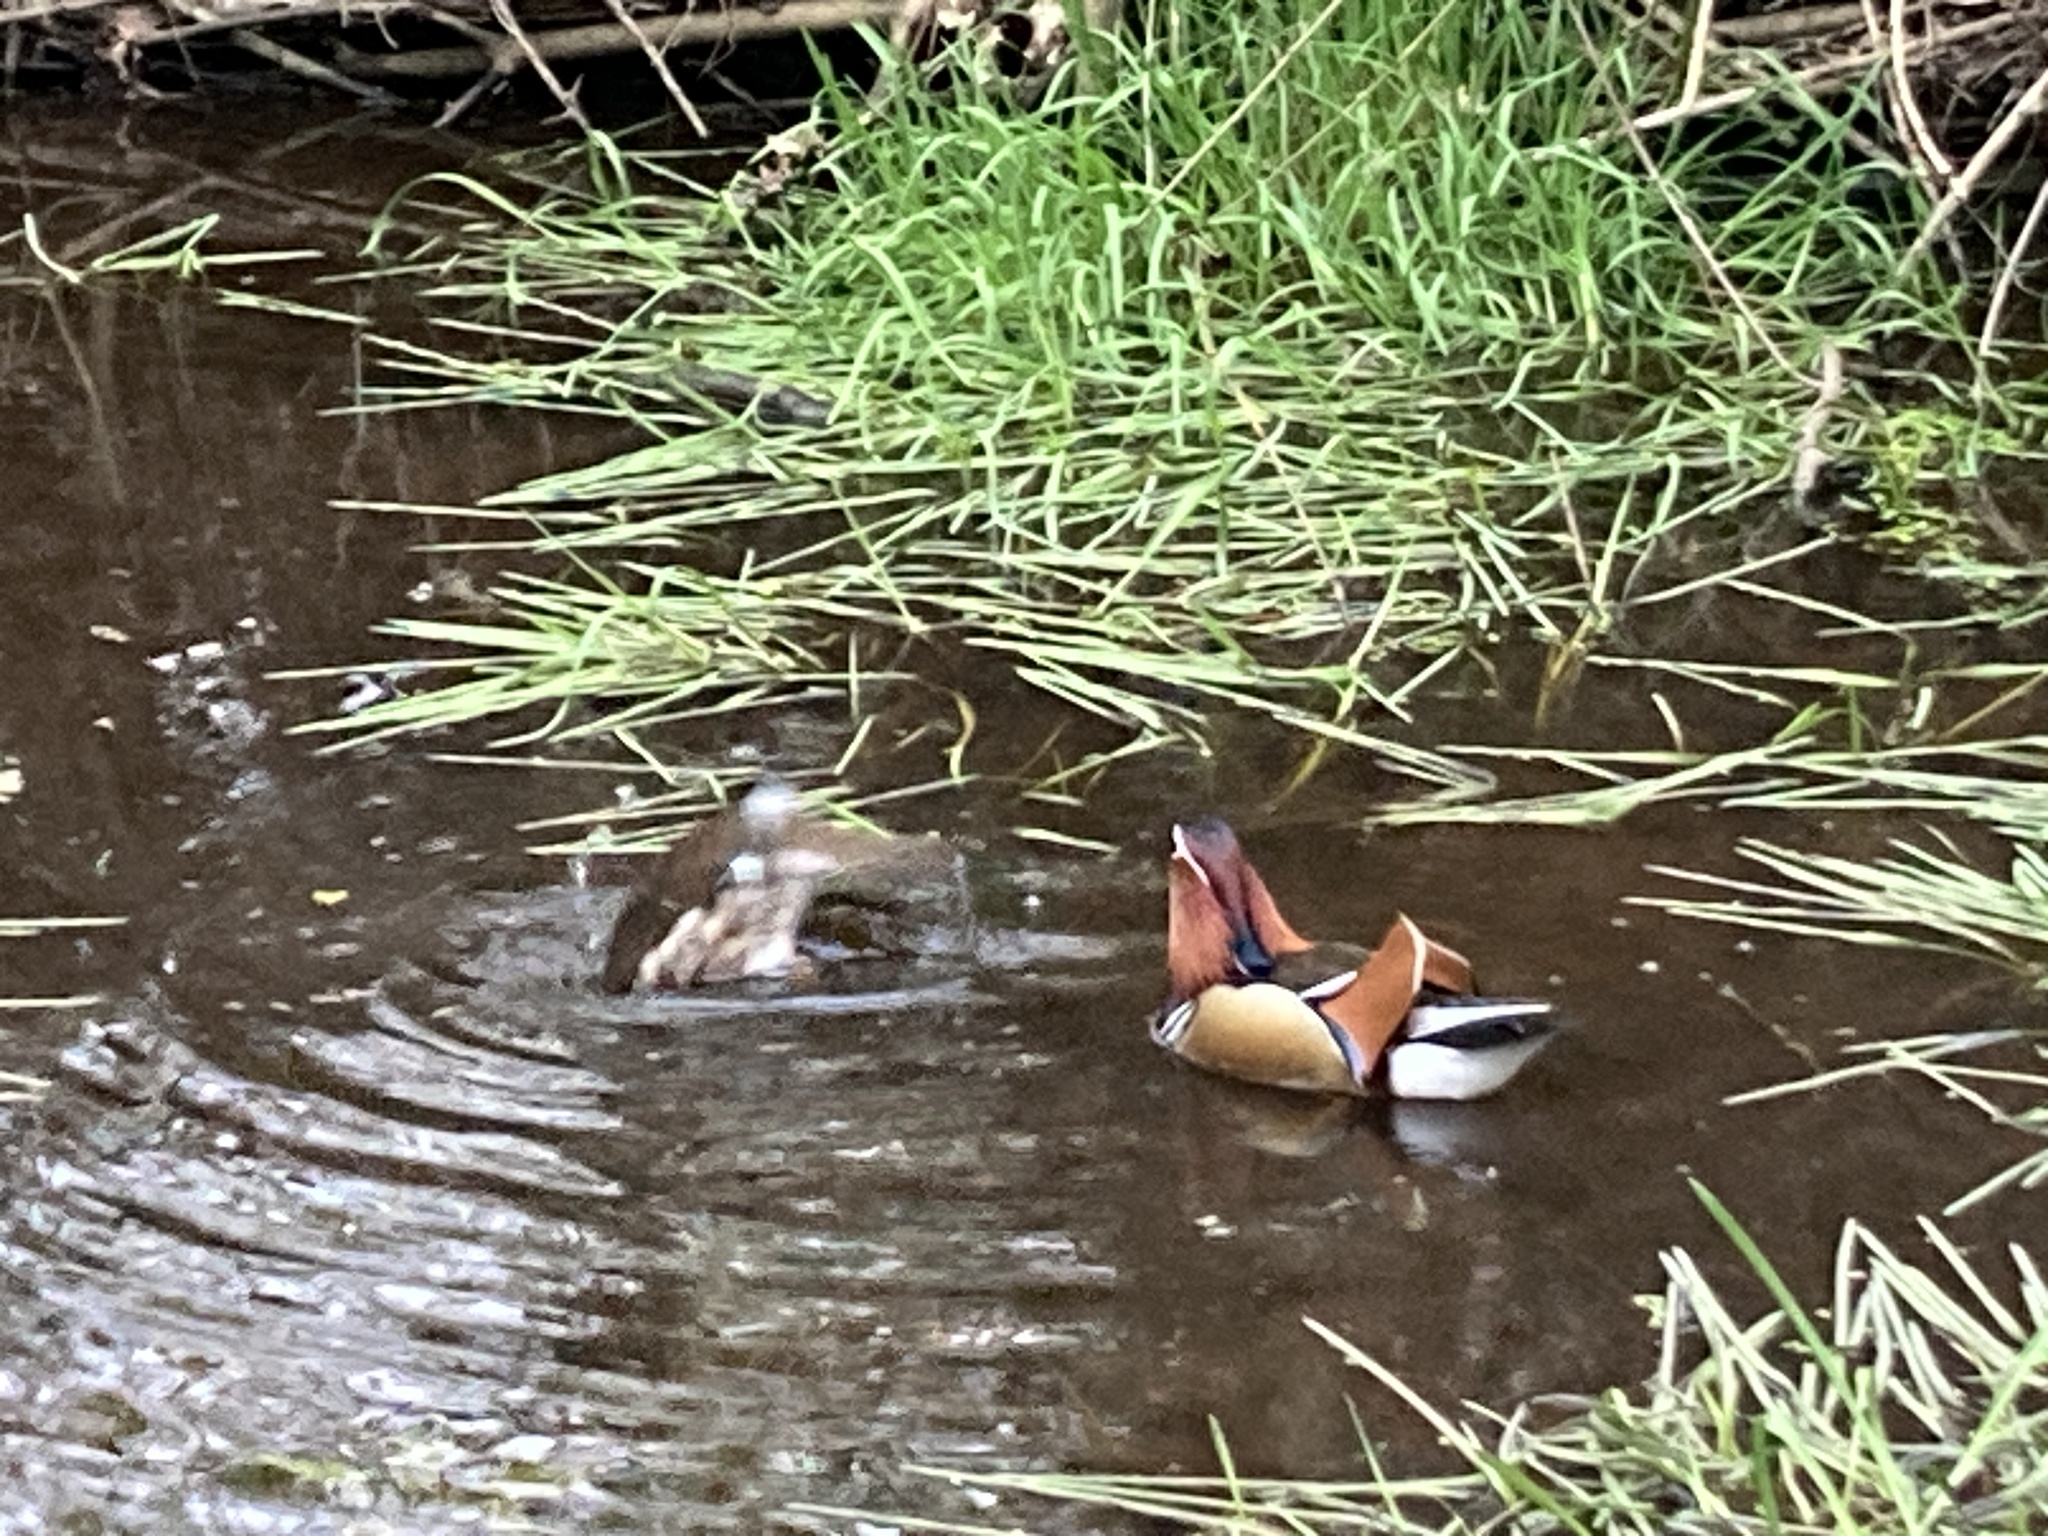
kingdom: Animalia
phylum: Chordata
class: Aves
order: Anseriformes
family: Anatidae
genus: Aix
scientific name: Aix galericulata
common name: Mandarin duck
